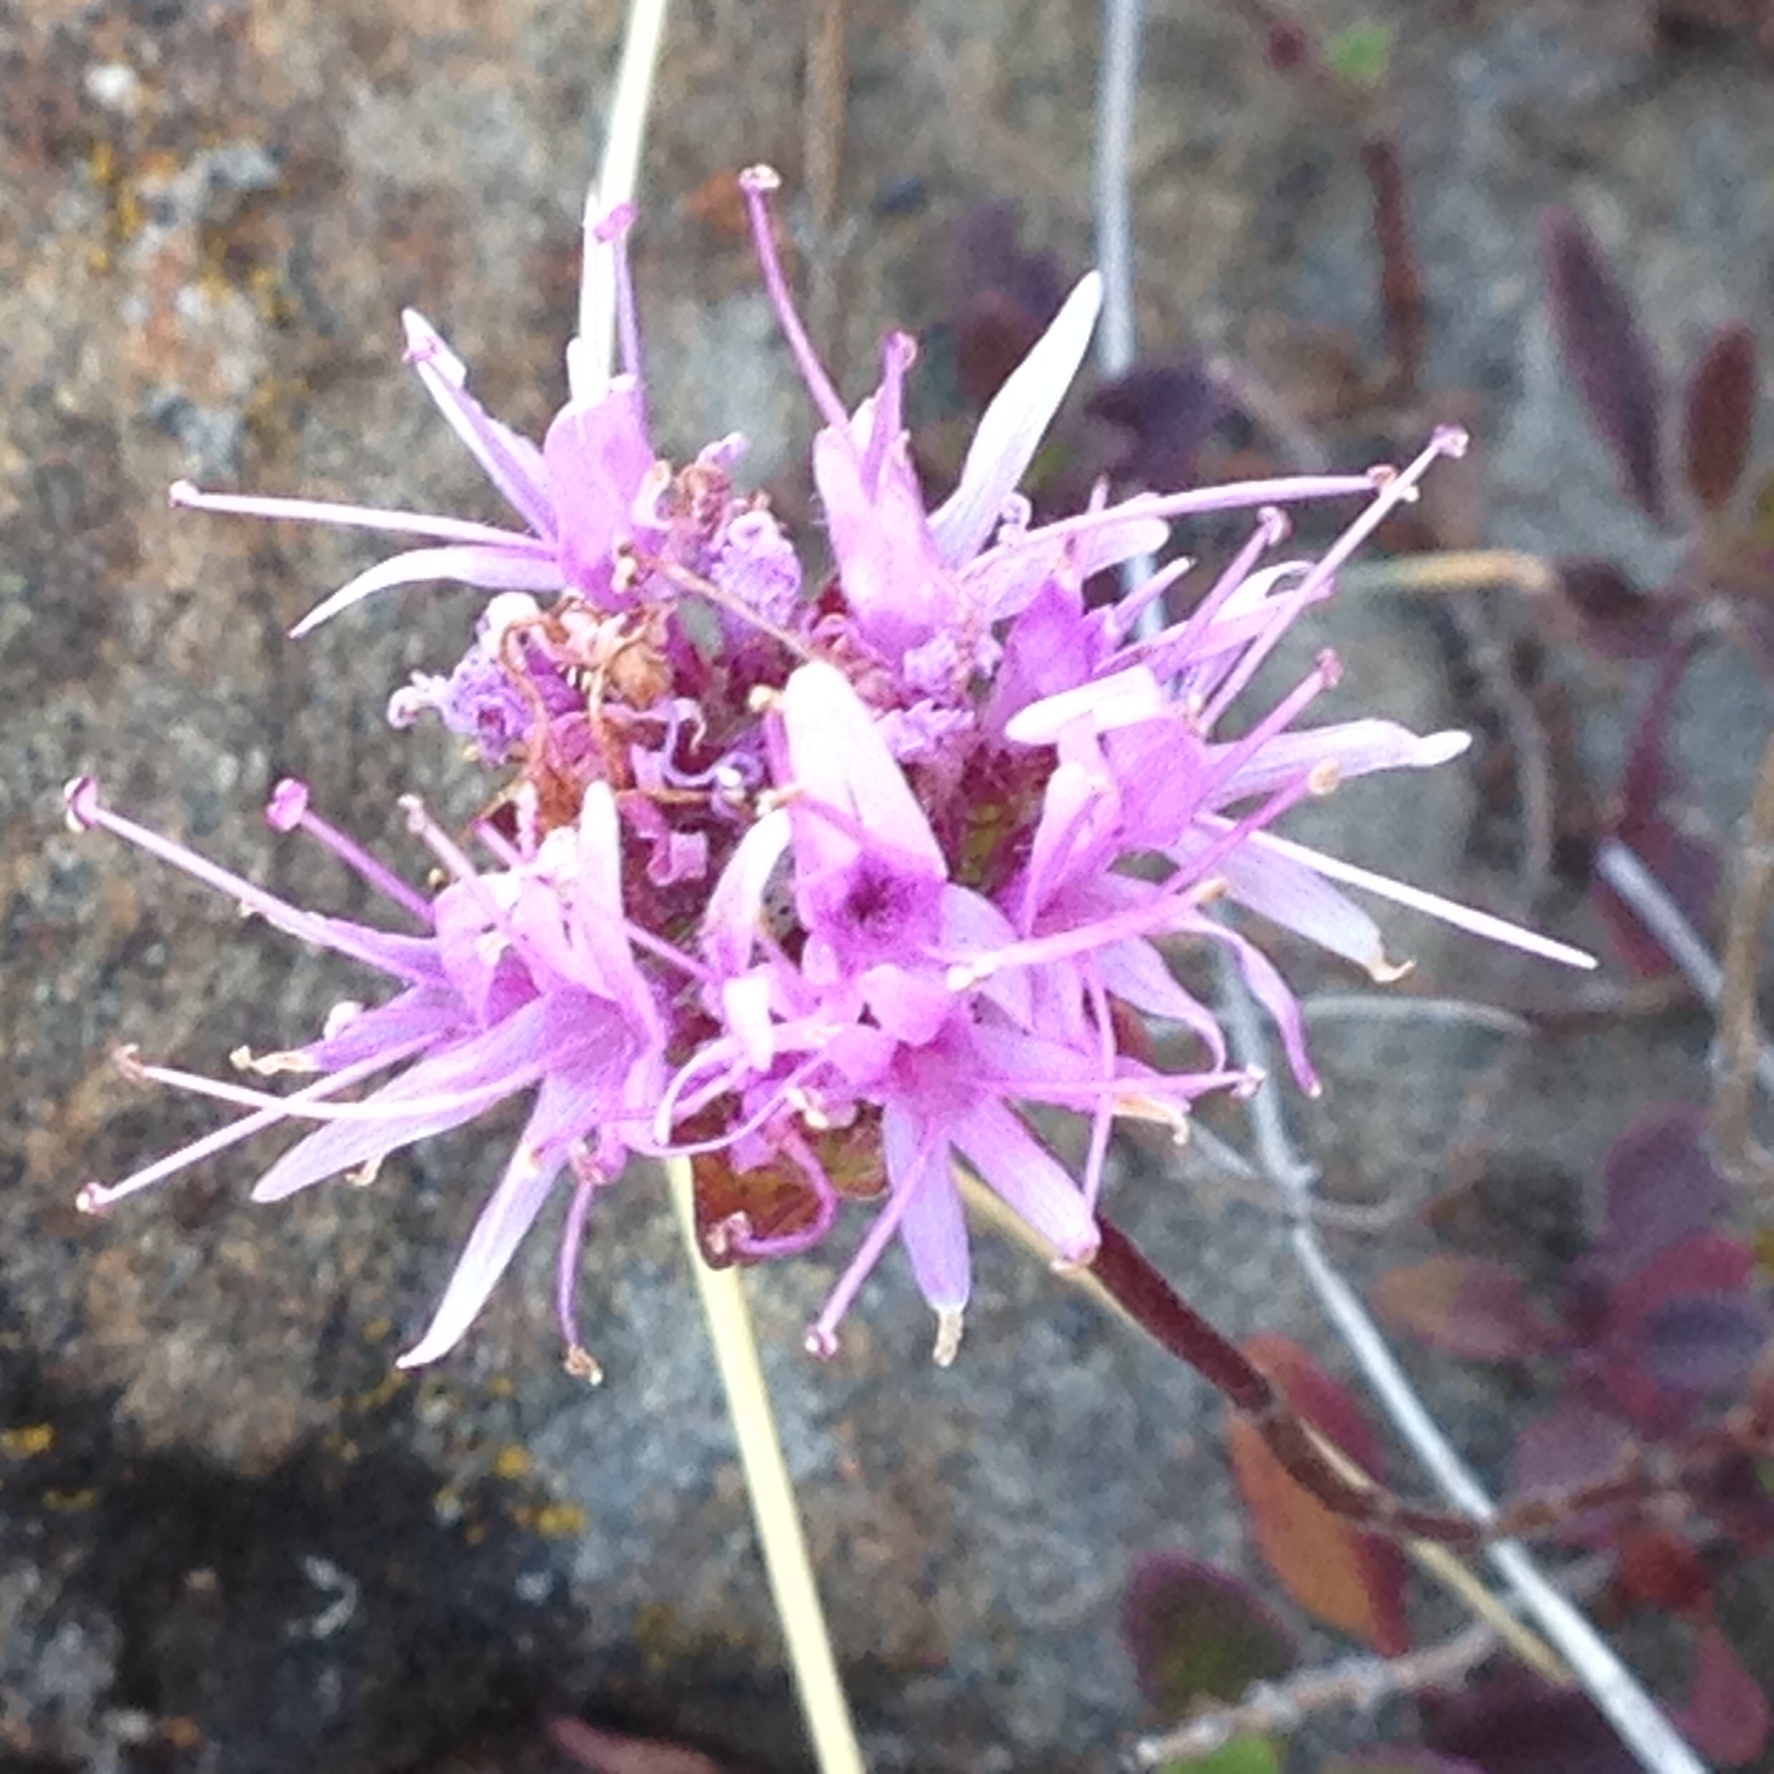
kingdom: Plantae
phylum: Tracheophyta
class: Magnoliopsida
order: Lamiales
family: Lamiaceae
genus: Monardella
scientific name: Monardella purpurea
